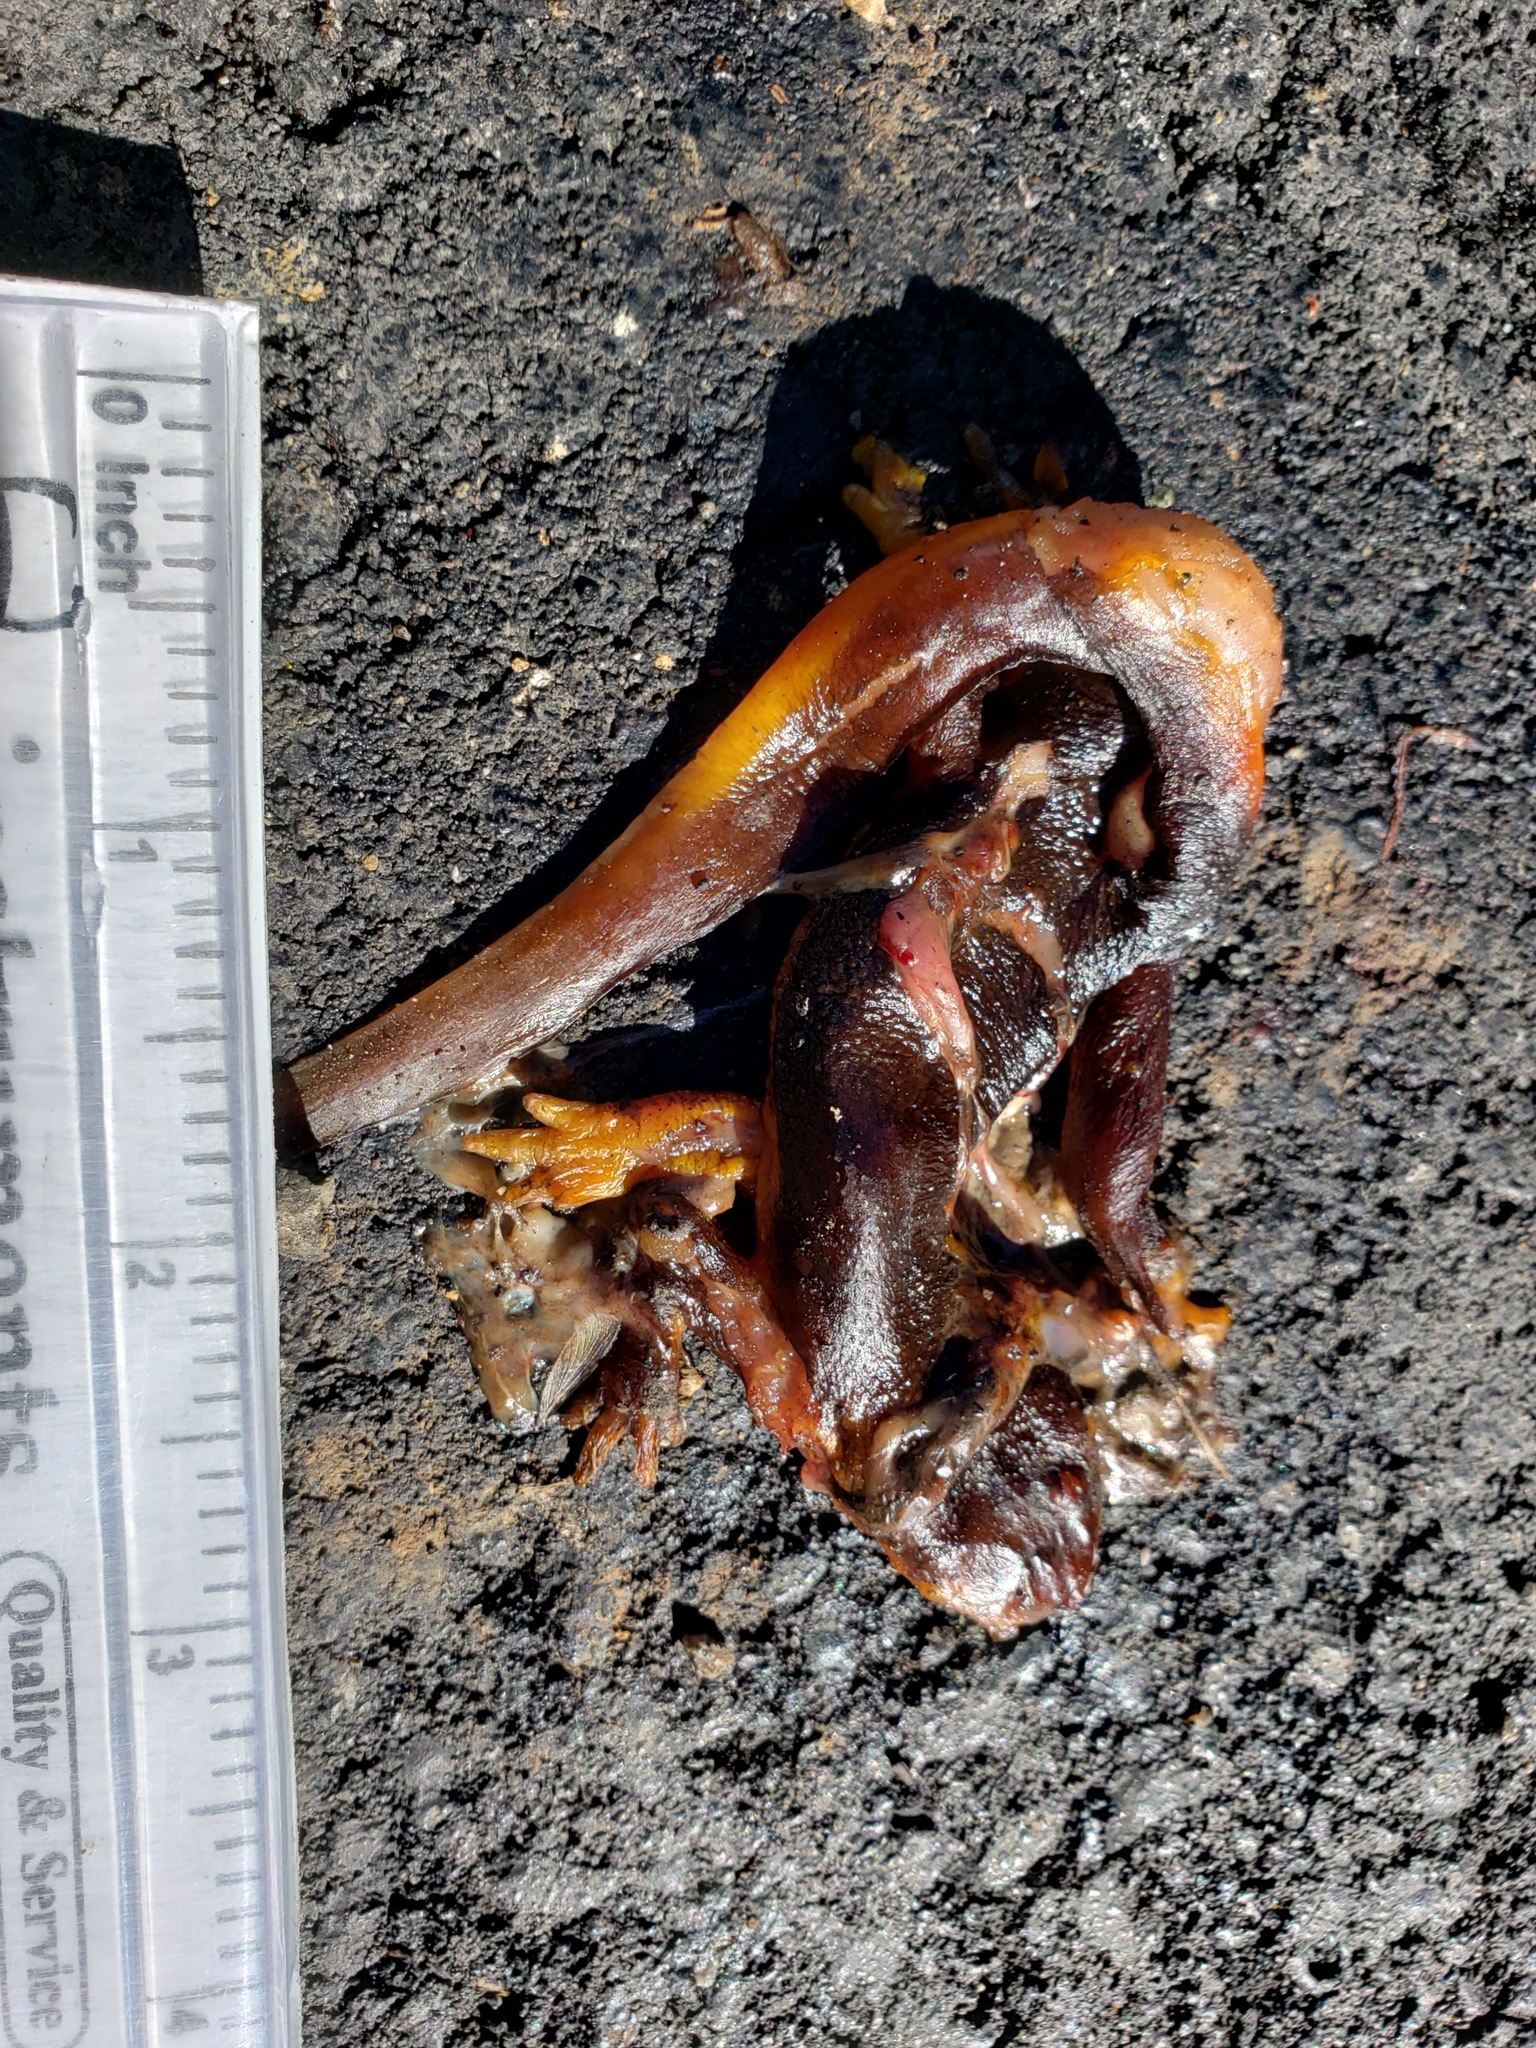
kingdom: Animalia
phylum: Chordata
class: Amphibia
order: Caudata
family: Salamandridae
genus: Taricha
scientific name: Taricha
